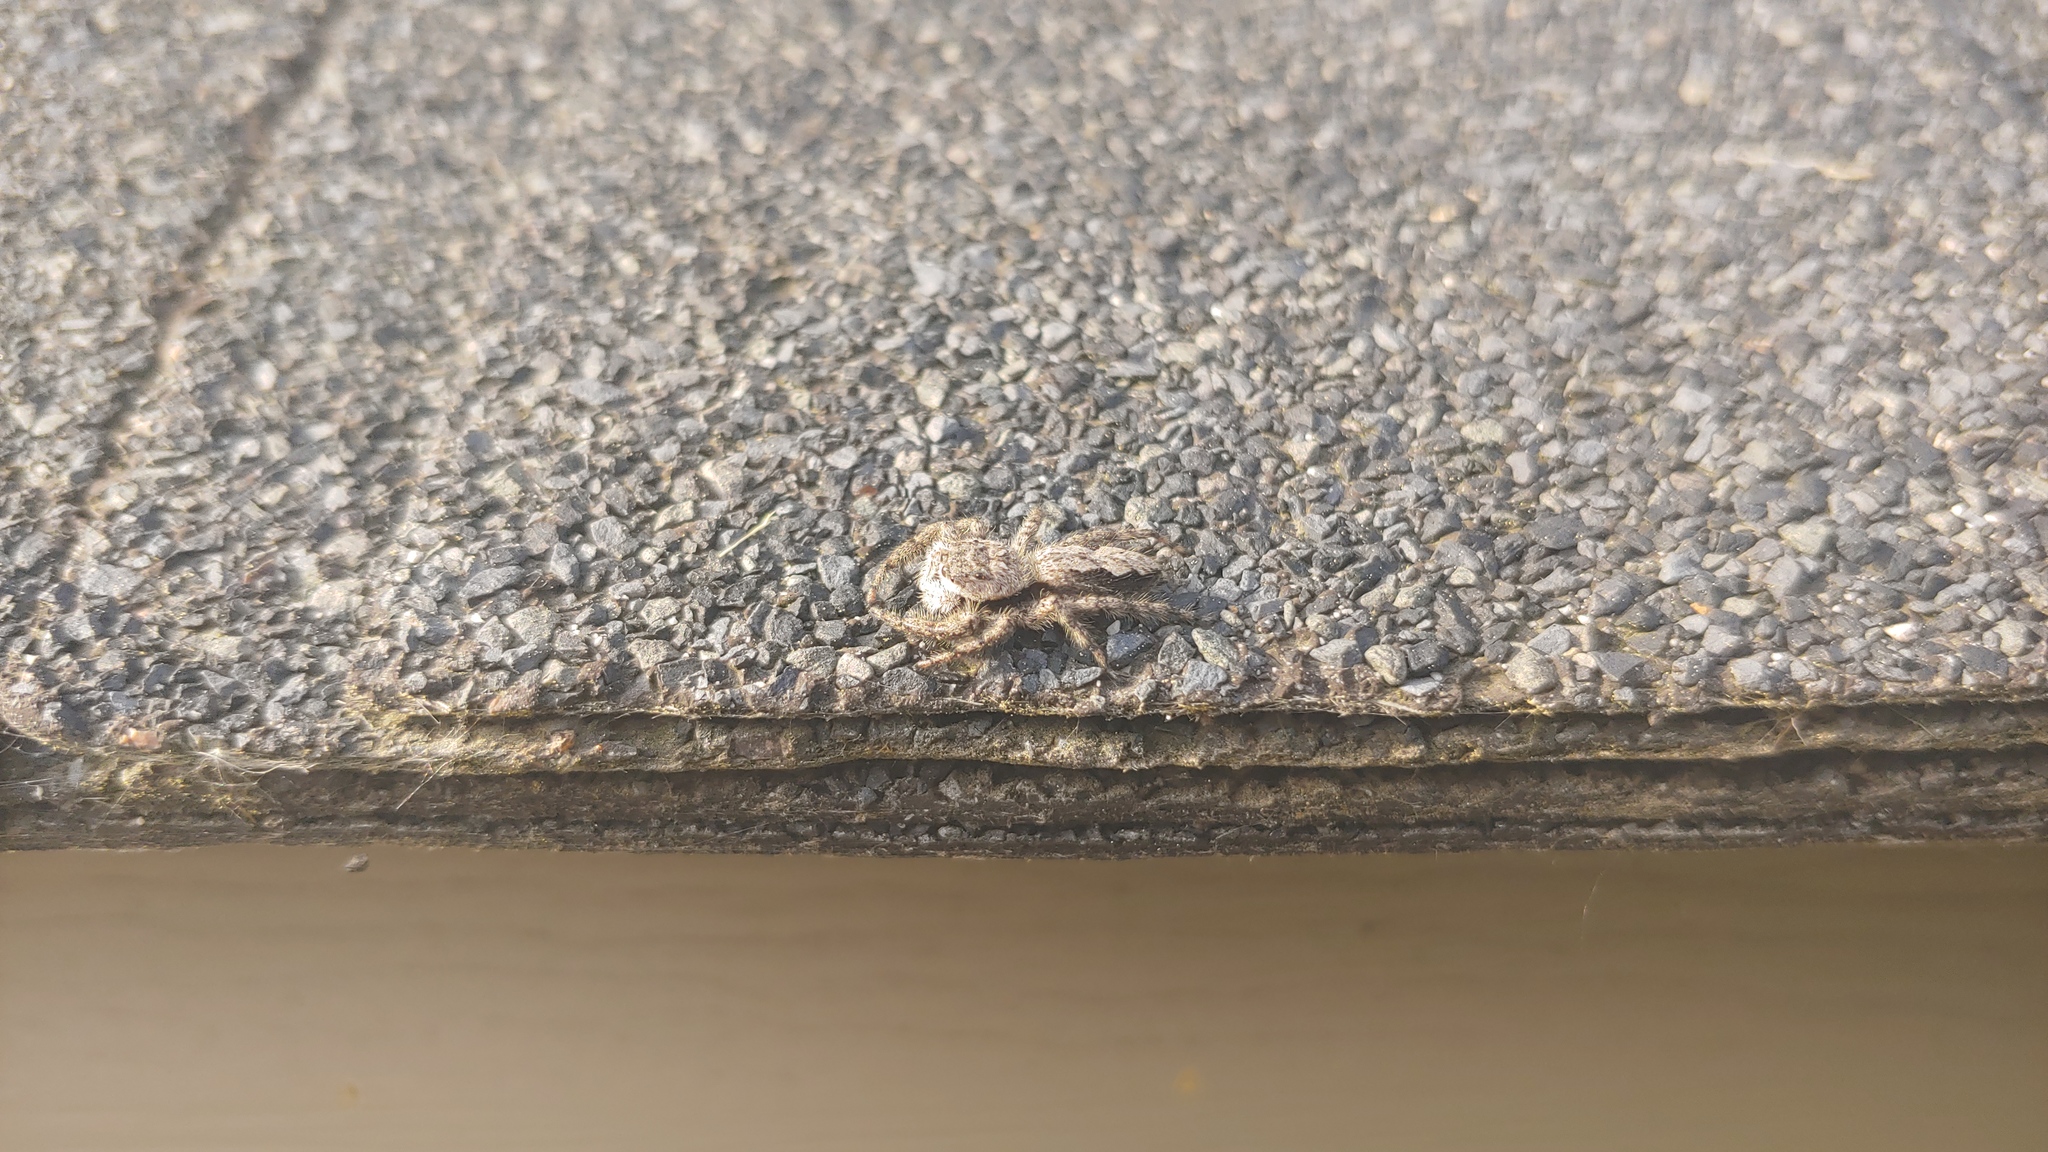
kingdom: Animalia
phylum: Arthropoda
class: Arachnida
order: Araneae
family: Salticidae
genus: Platycryptus
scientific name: Platycryptus undatus
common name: Tan jumping spider
